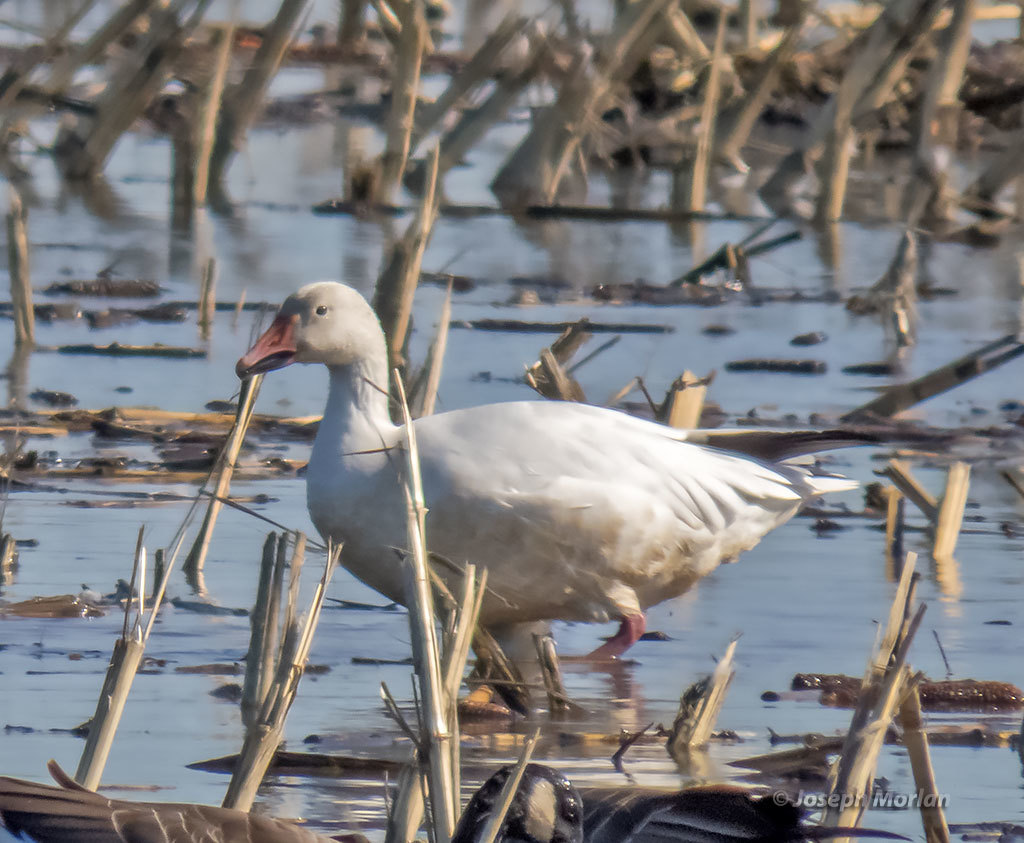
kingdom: Animalia
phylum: Chordata
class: Aves
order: Anseriformes
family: Anatidae
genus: Anser
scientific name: Anser caerulescens
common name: Snow goose
